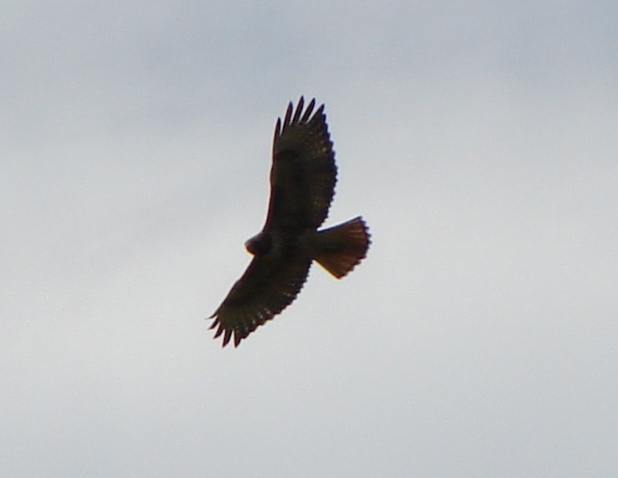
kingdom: Animalia
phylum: Chordata
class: Aves
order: Accipitriformes
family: Accipitridae
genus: Buteo
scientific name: Buteo jamaicensis
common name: Red-tailed hawk
